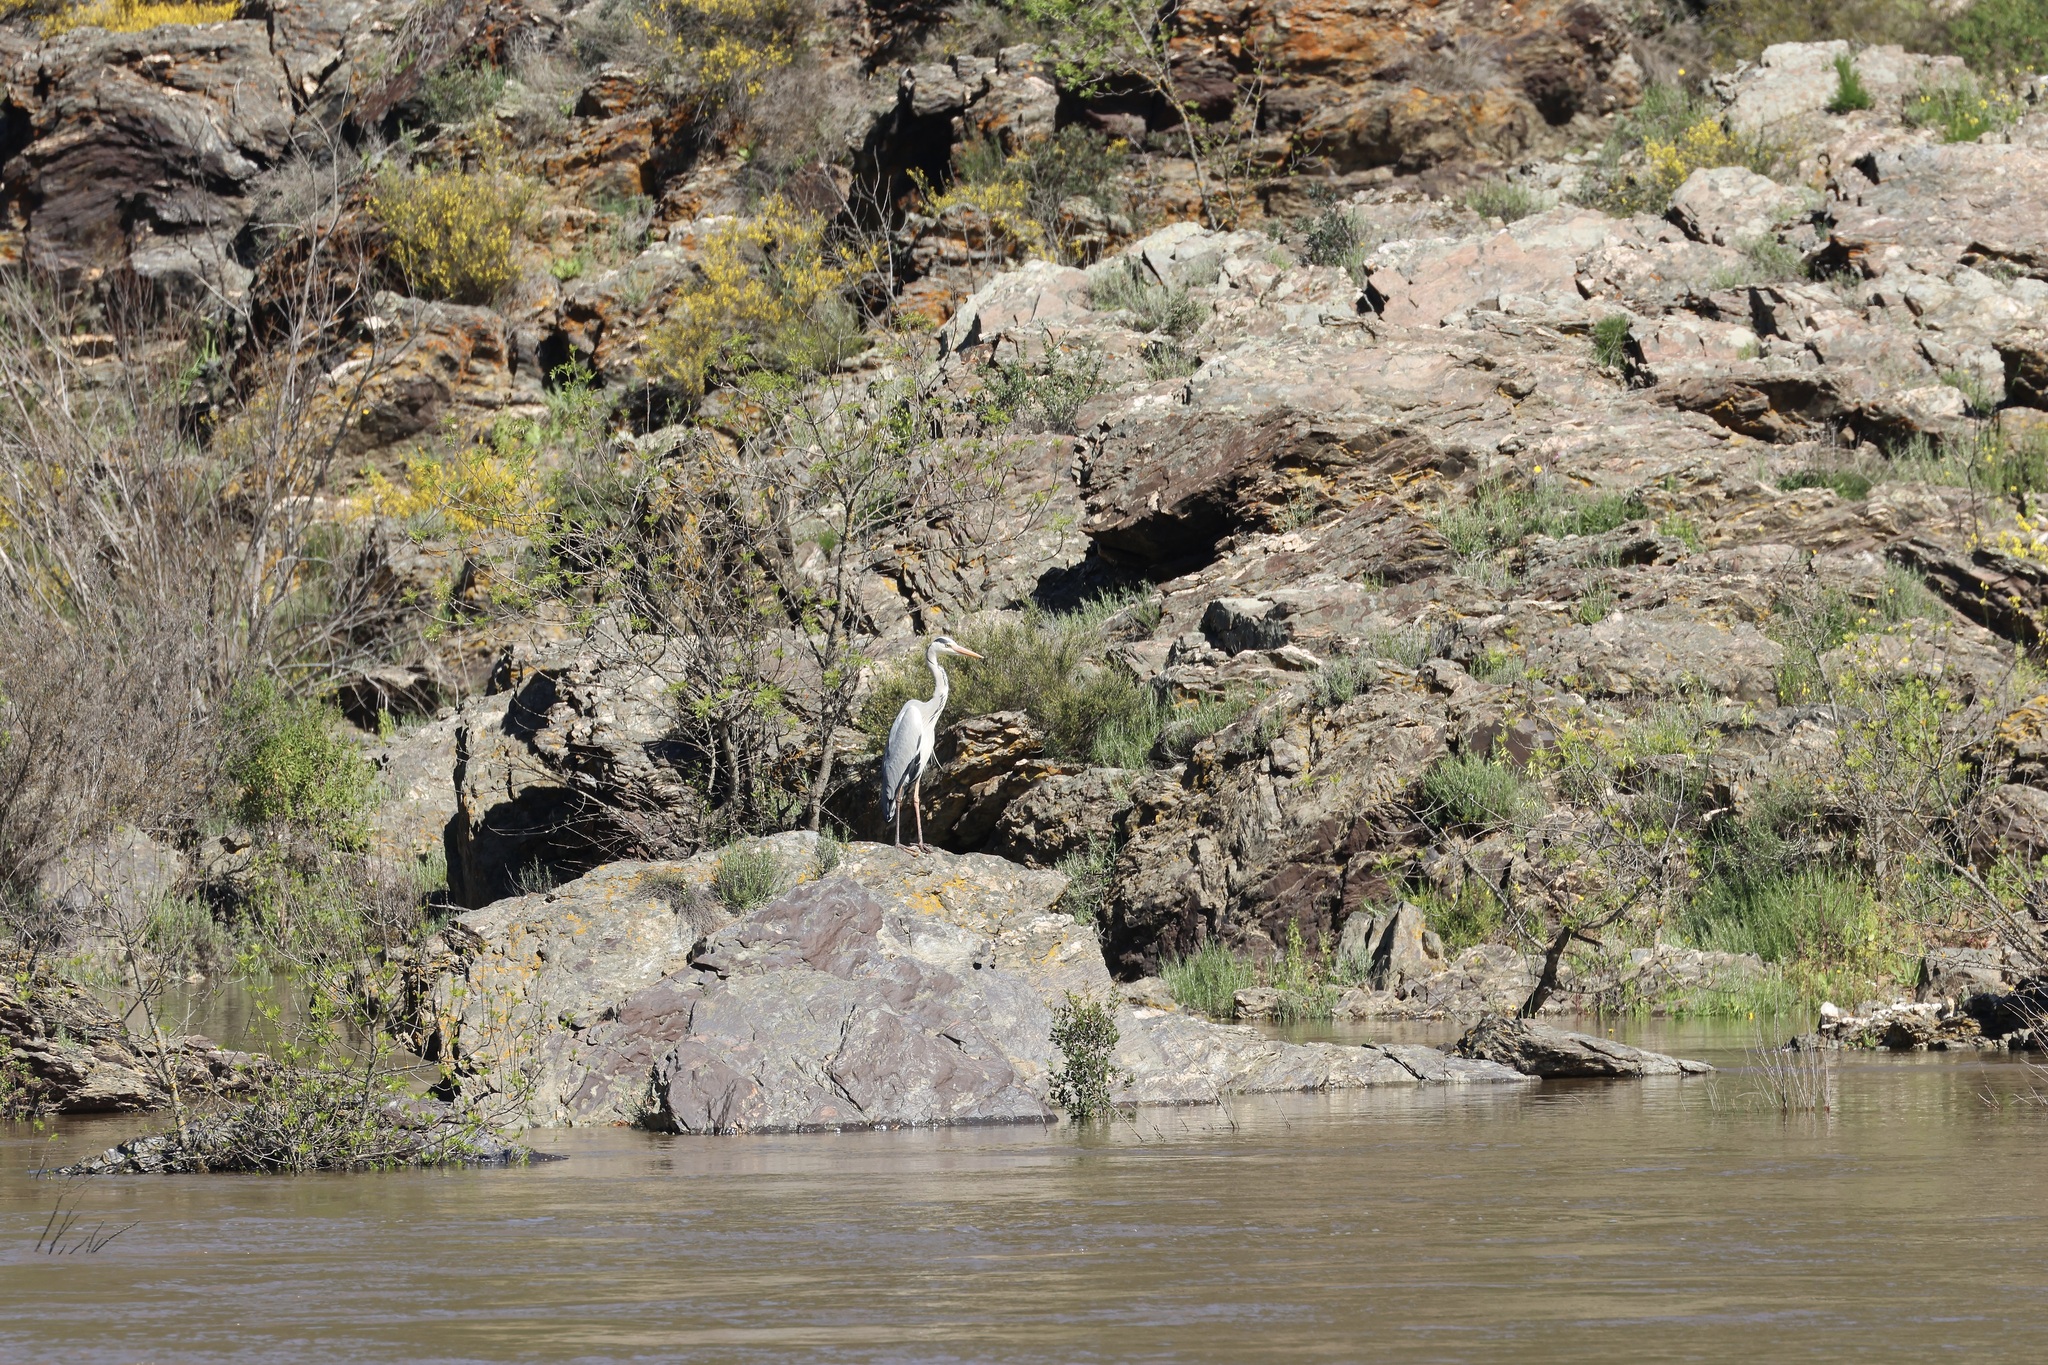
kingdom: Animalia
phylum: Chordata
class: Aves
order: Pelecaniformes
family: Ardeidae
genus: Ardea
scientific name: Ardea cinerea
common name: Grey heron
